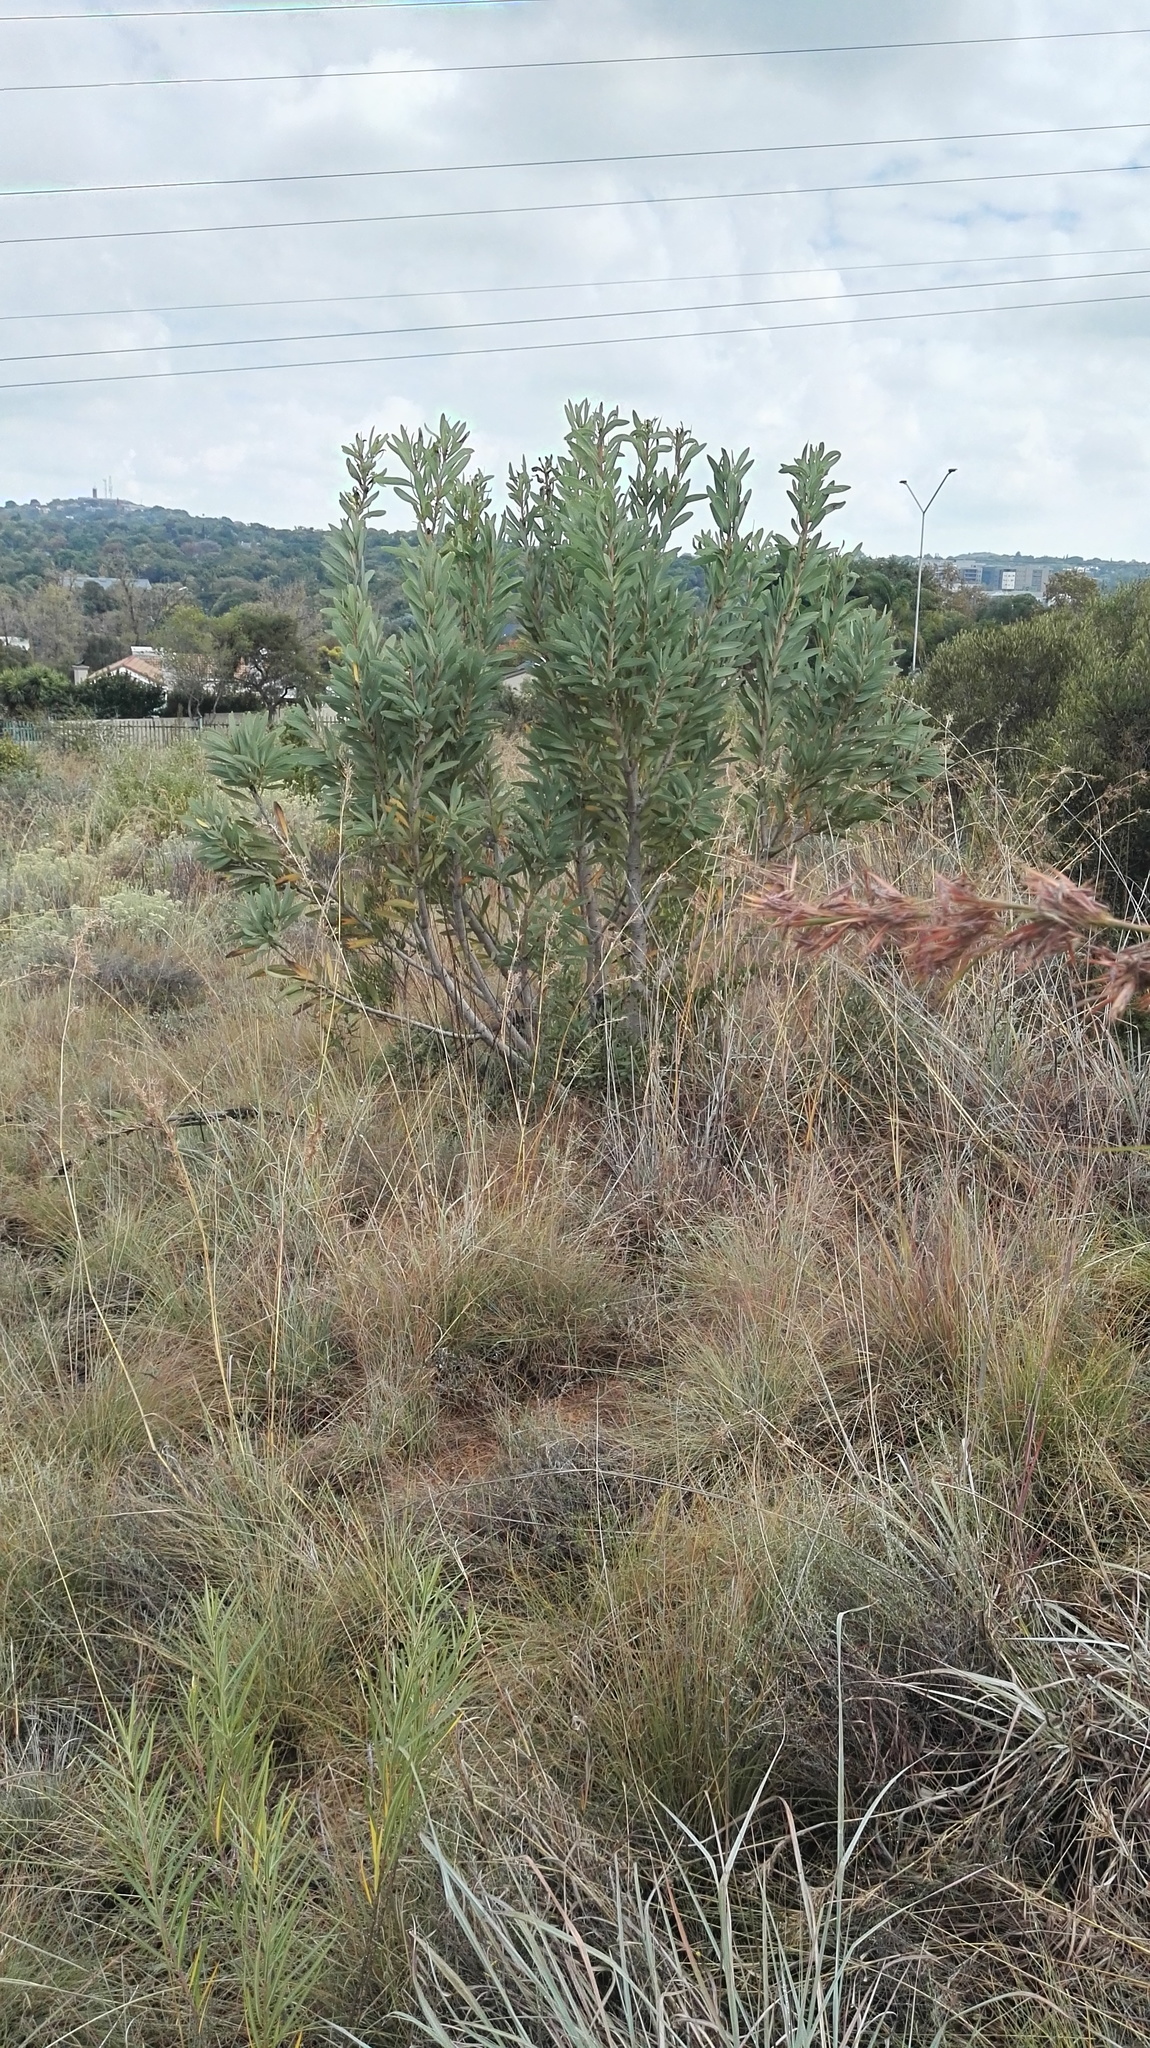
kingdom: Plantae
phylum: Tracheophyta
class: Magnoliopsida
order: Proteales
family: Proteaceae
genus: Protea
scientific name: Protea caffra
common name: Common sugarbush
